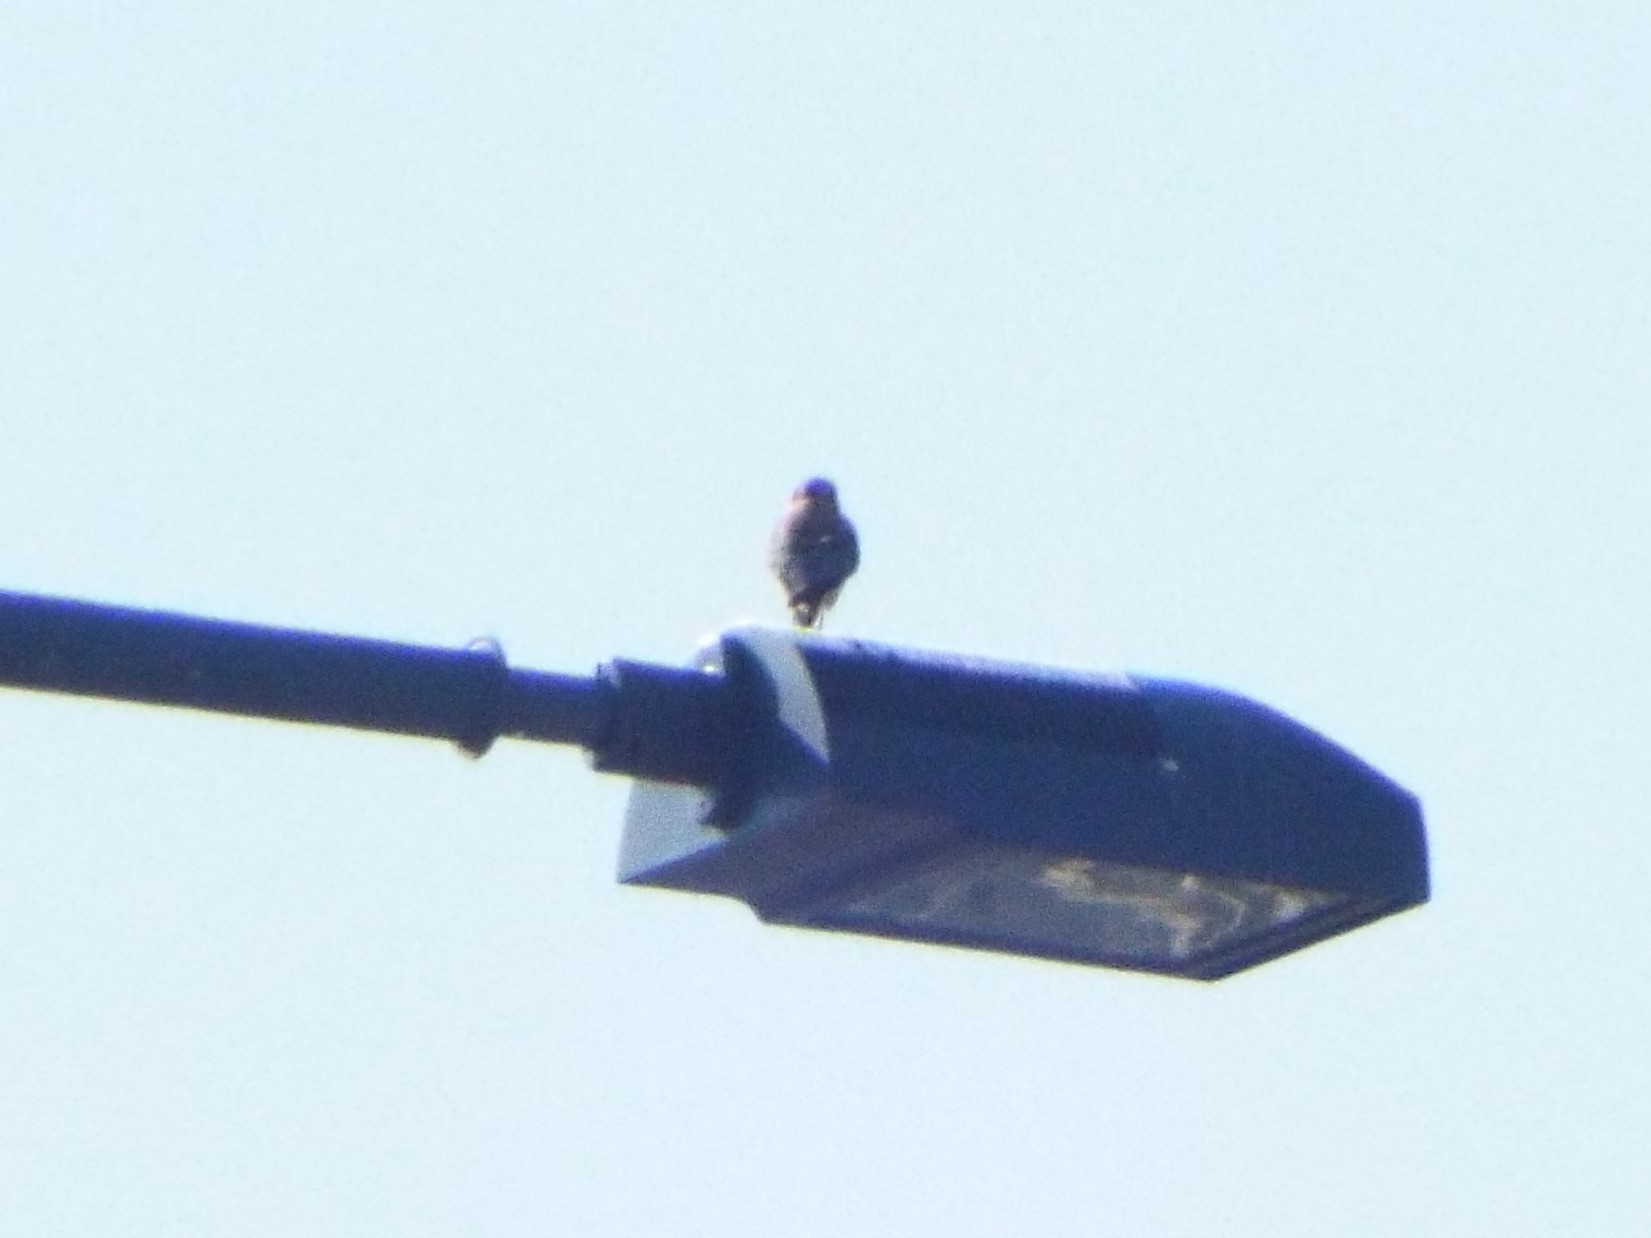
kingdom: Animalia
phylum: Chordata
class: Aves
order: Falconiformes
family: Falconidae
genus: Falco
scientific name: Falco sparverius
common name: American kestrel
